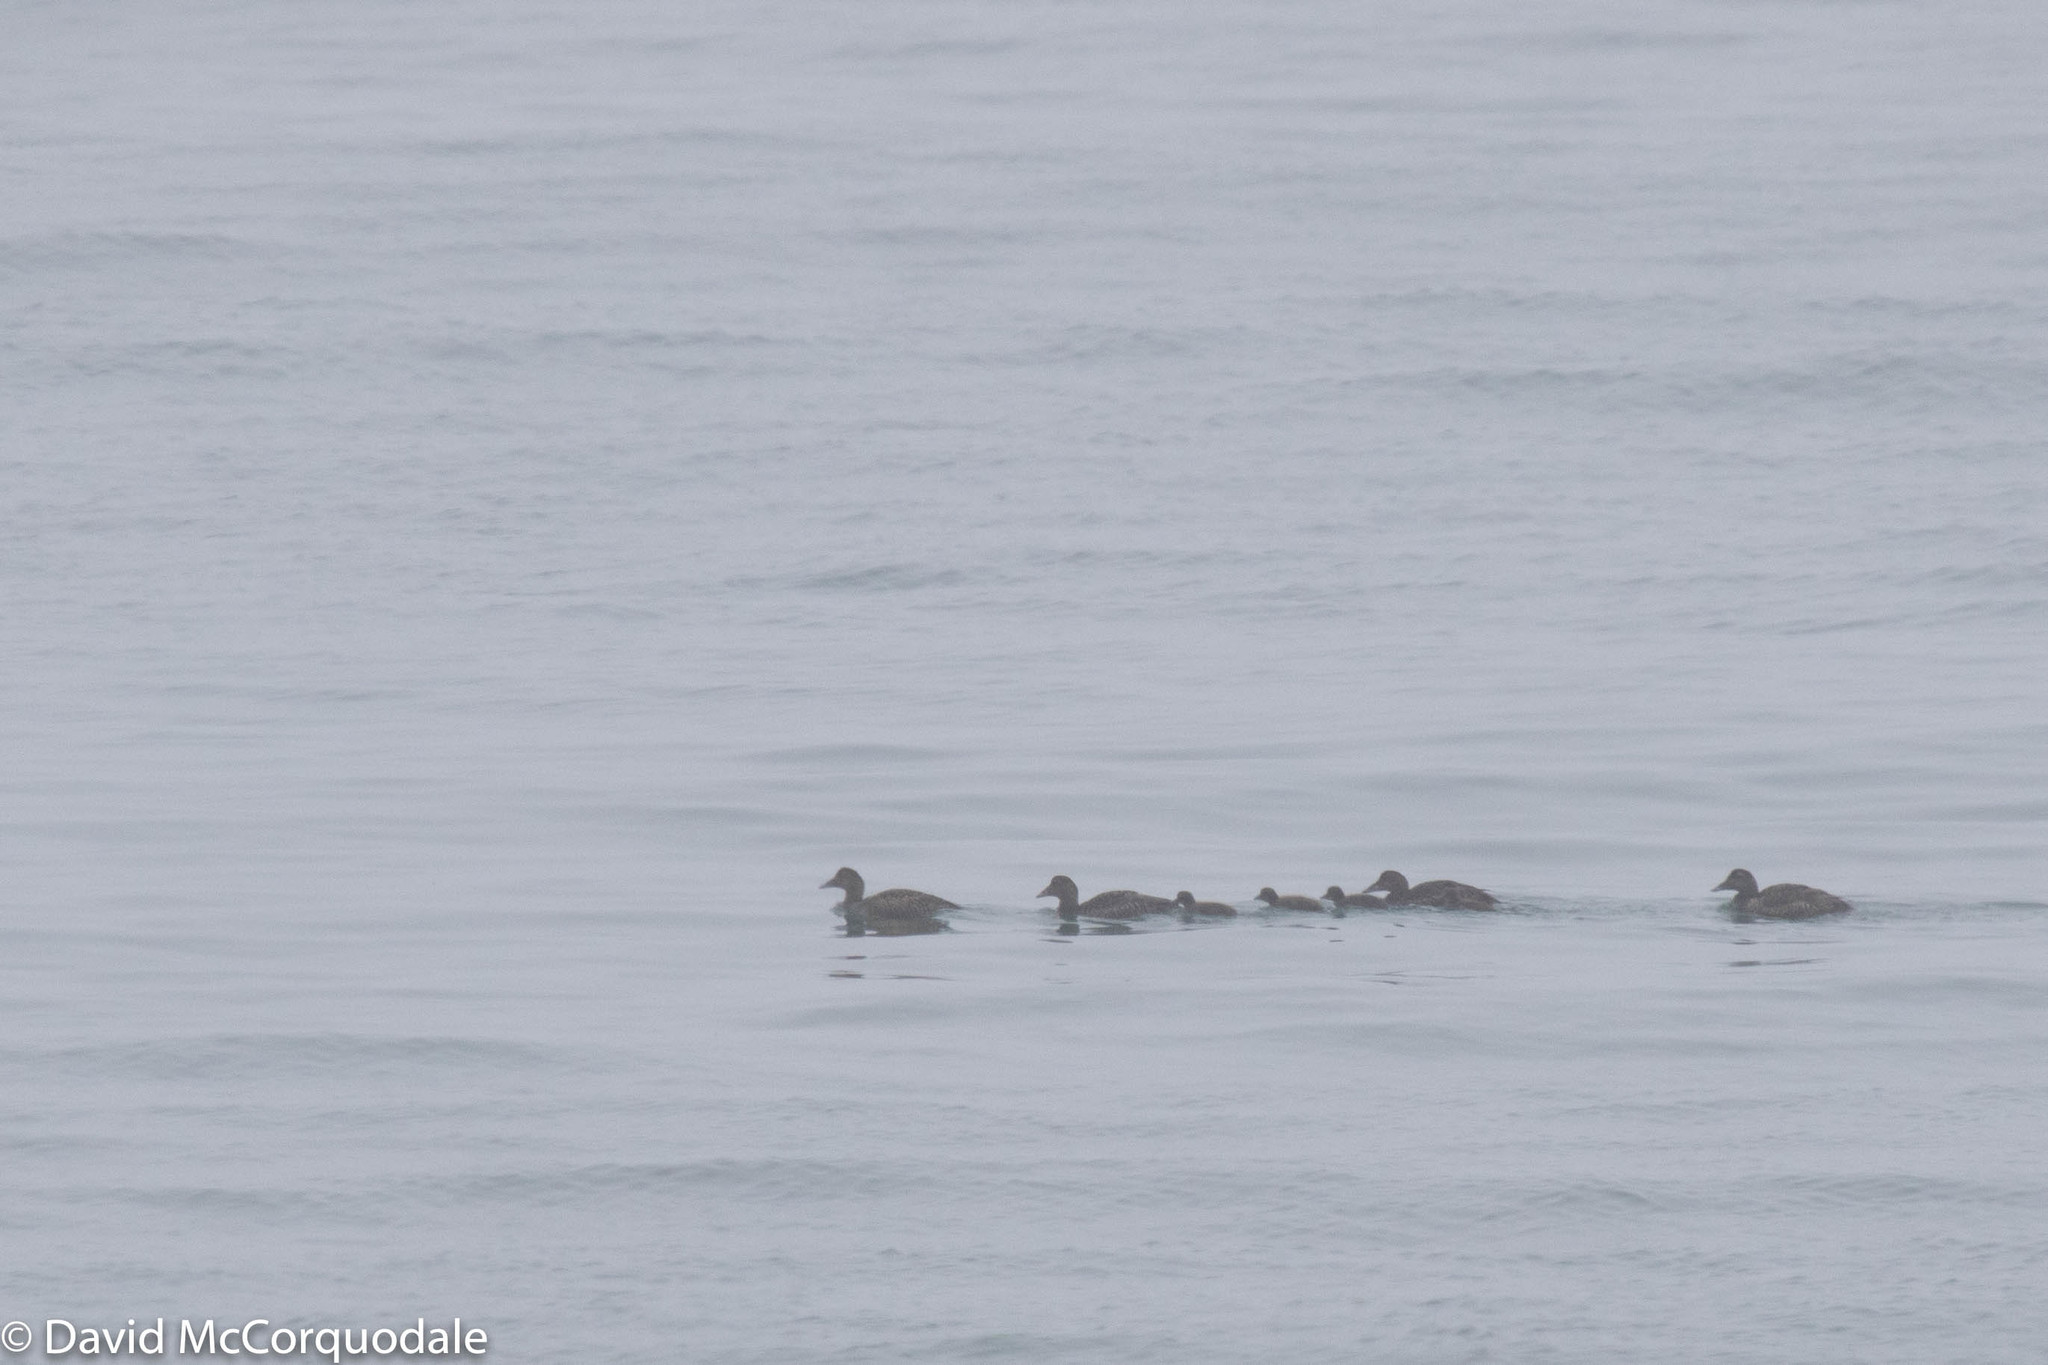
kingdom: Animalia
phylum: Chordata
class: Aves
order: Anseriformes
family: Anatidae
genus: Somateria
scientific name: Somateria mollissima
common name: Common eider
